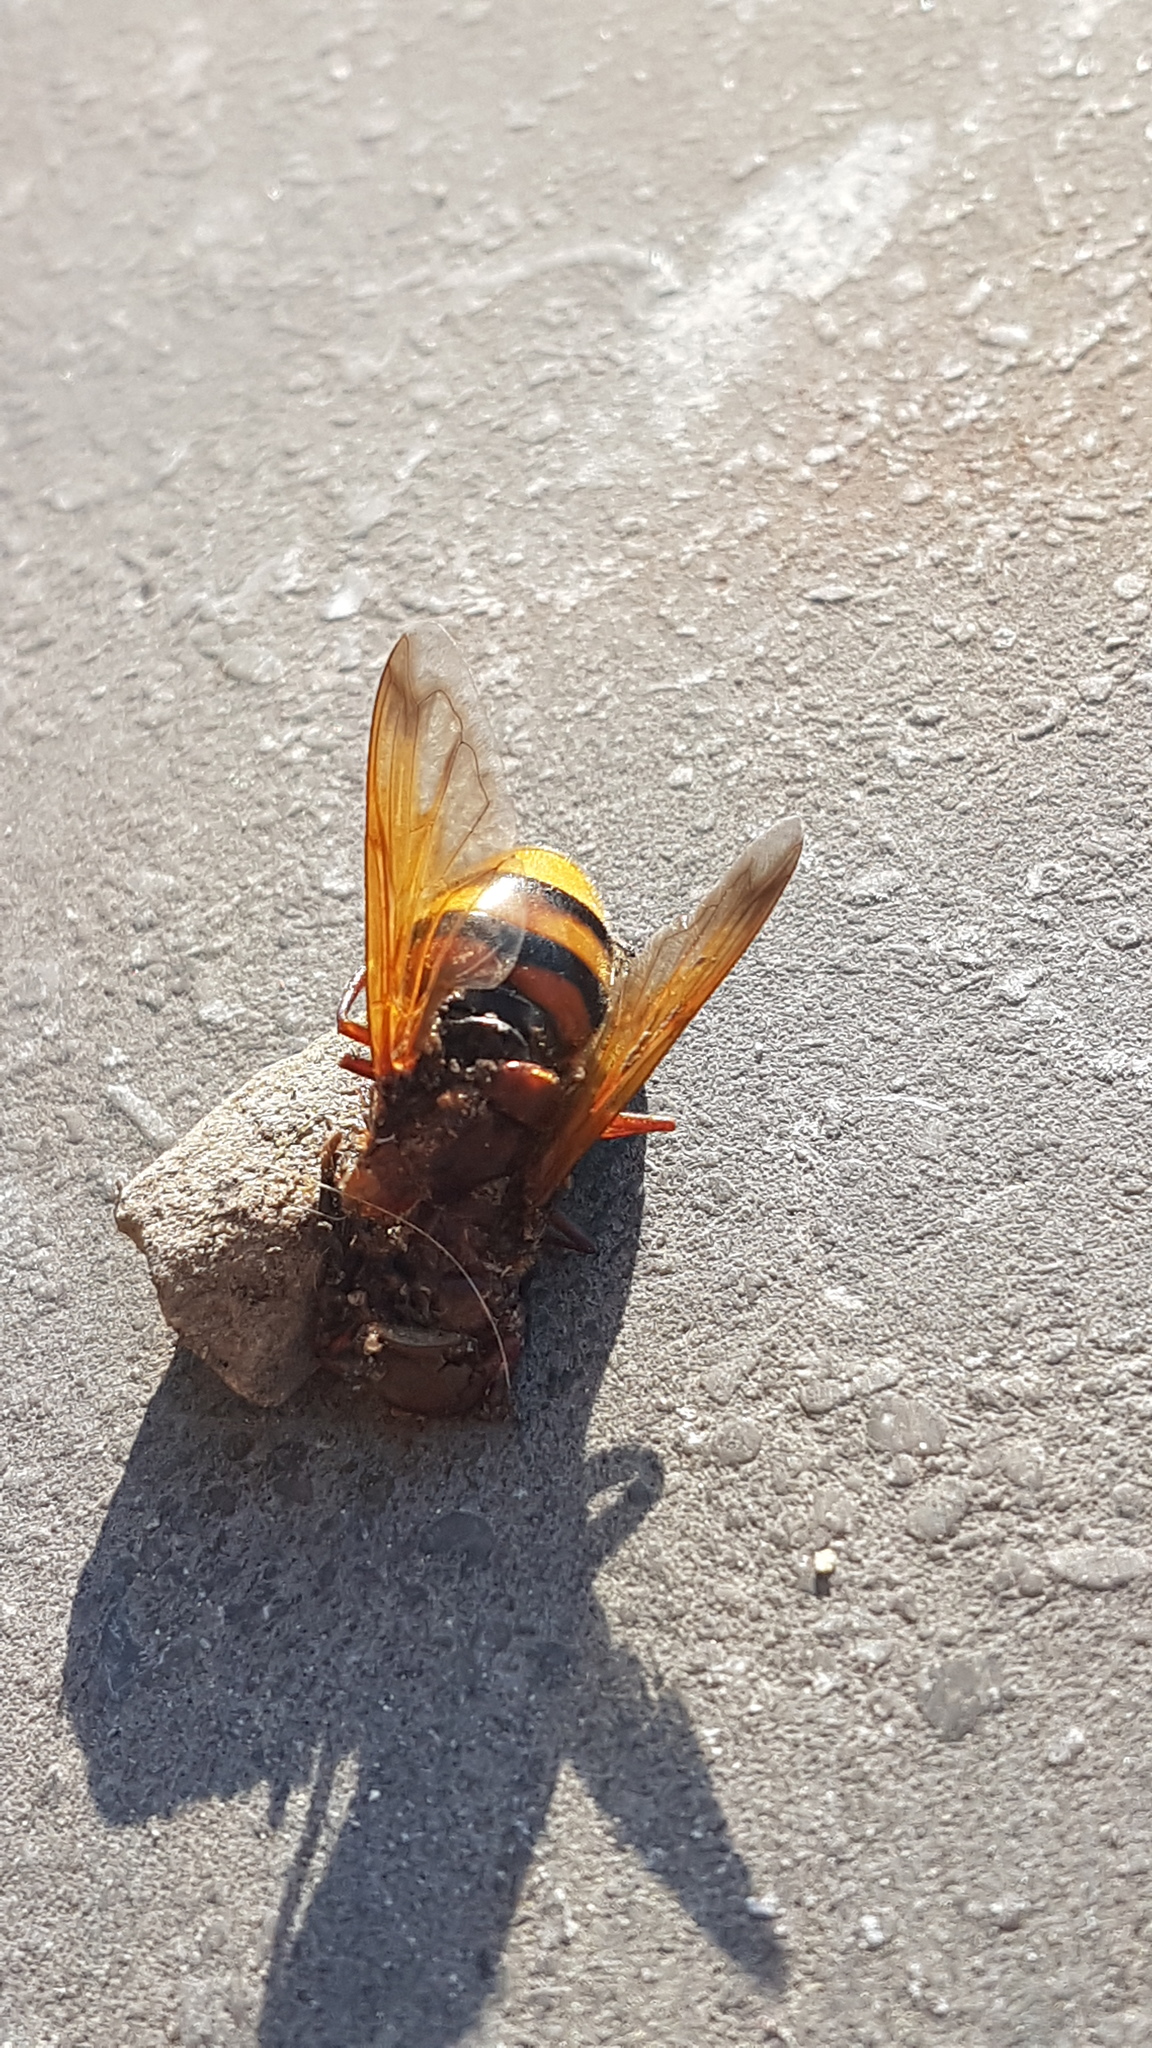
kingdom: Animalia
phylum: Arthropoda
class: Insecta
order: Diptera
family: Syrphidae
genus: Volucella
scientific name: Volucella zonaria
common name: Hornet hoverfly
